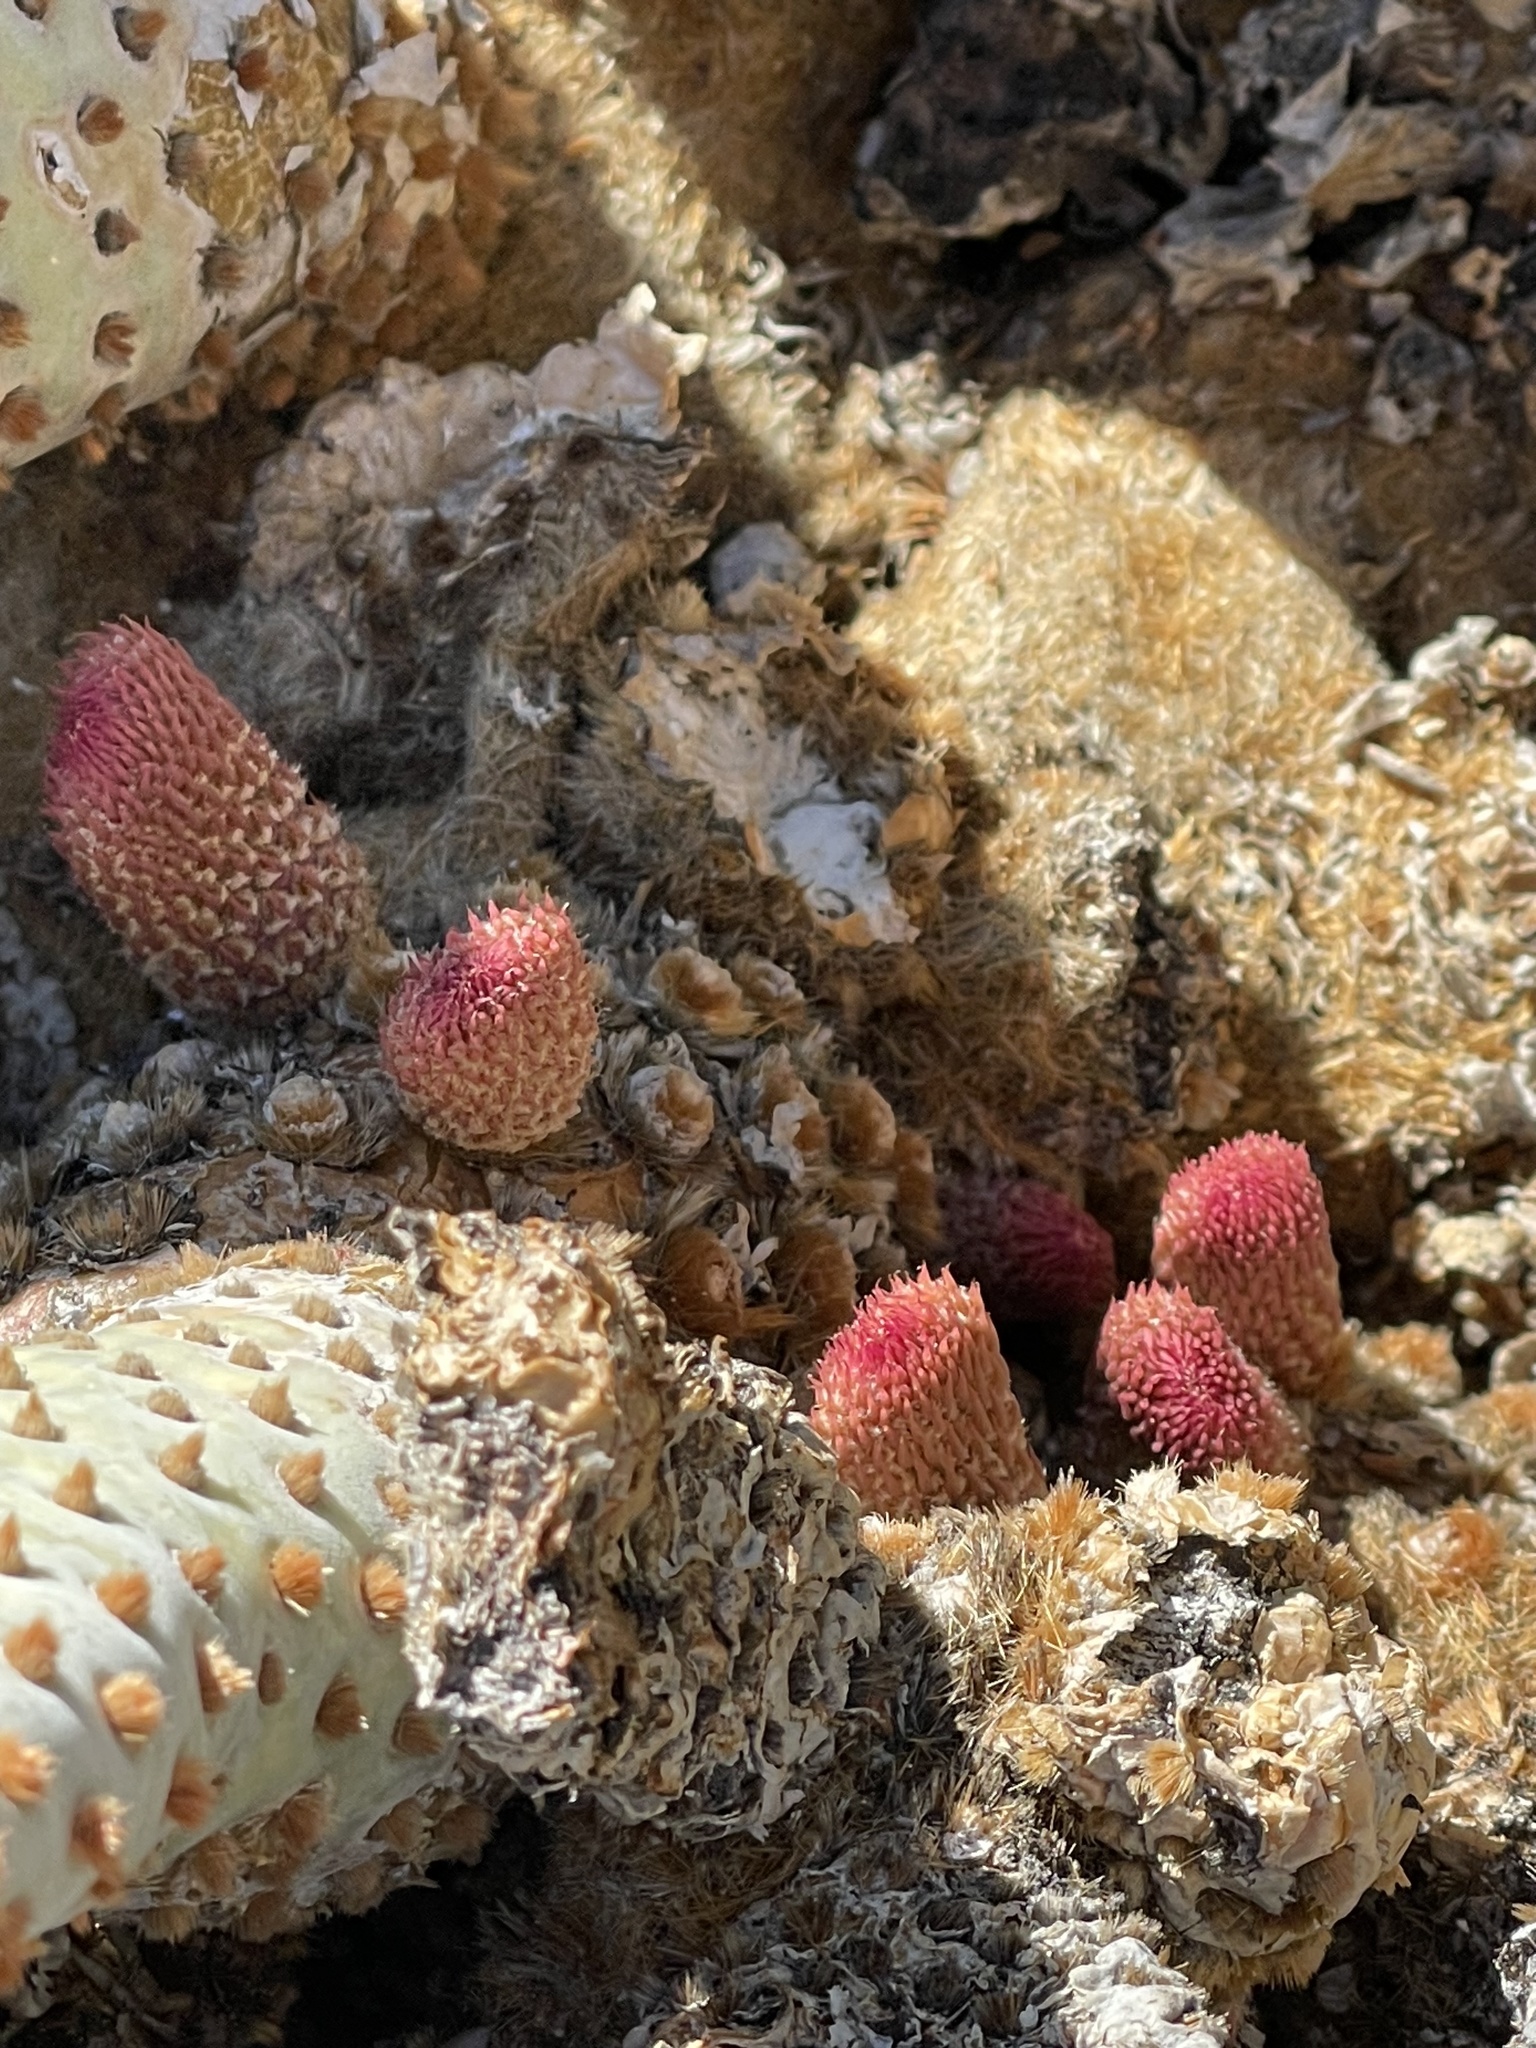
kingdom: Plantae
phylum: Tracheophyta
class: Magnoliopsida
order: Caryophyllales
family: Cactaceae
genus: Opuntia
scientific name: Opuntia basilaris
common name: Beavertail prickly-pear
